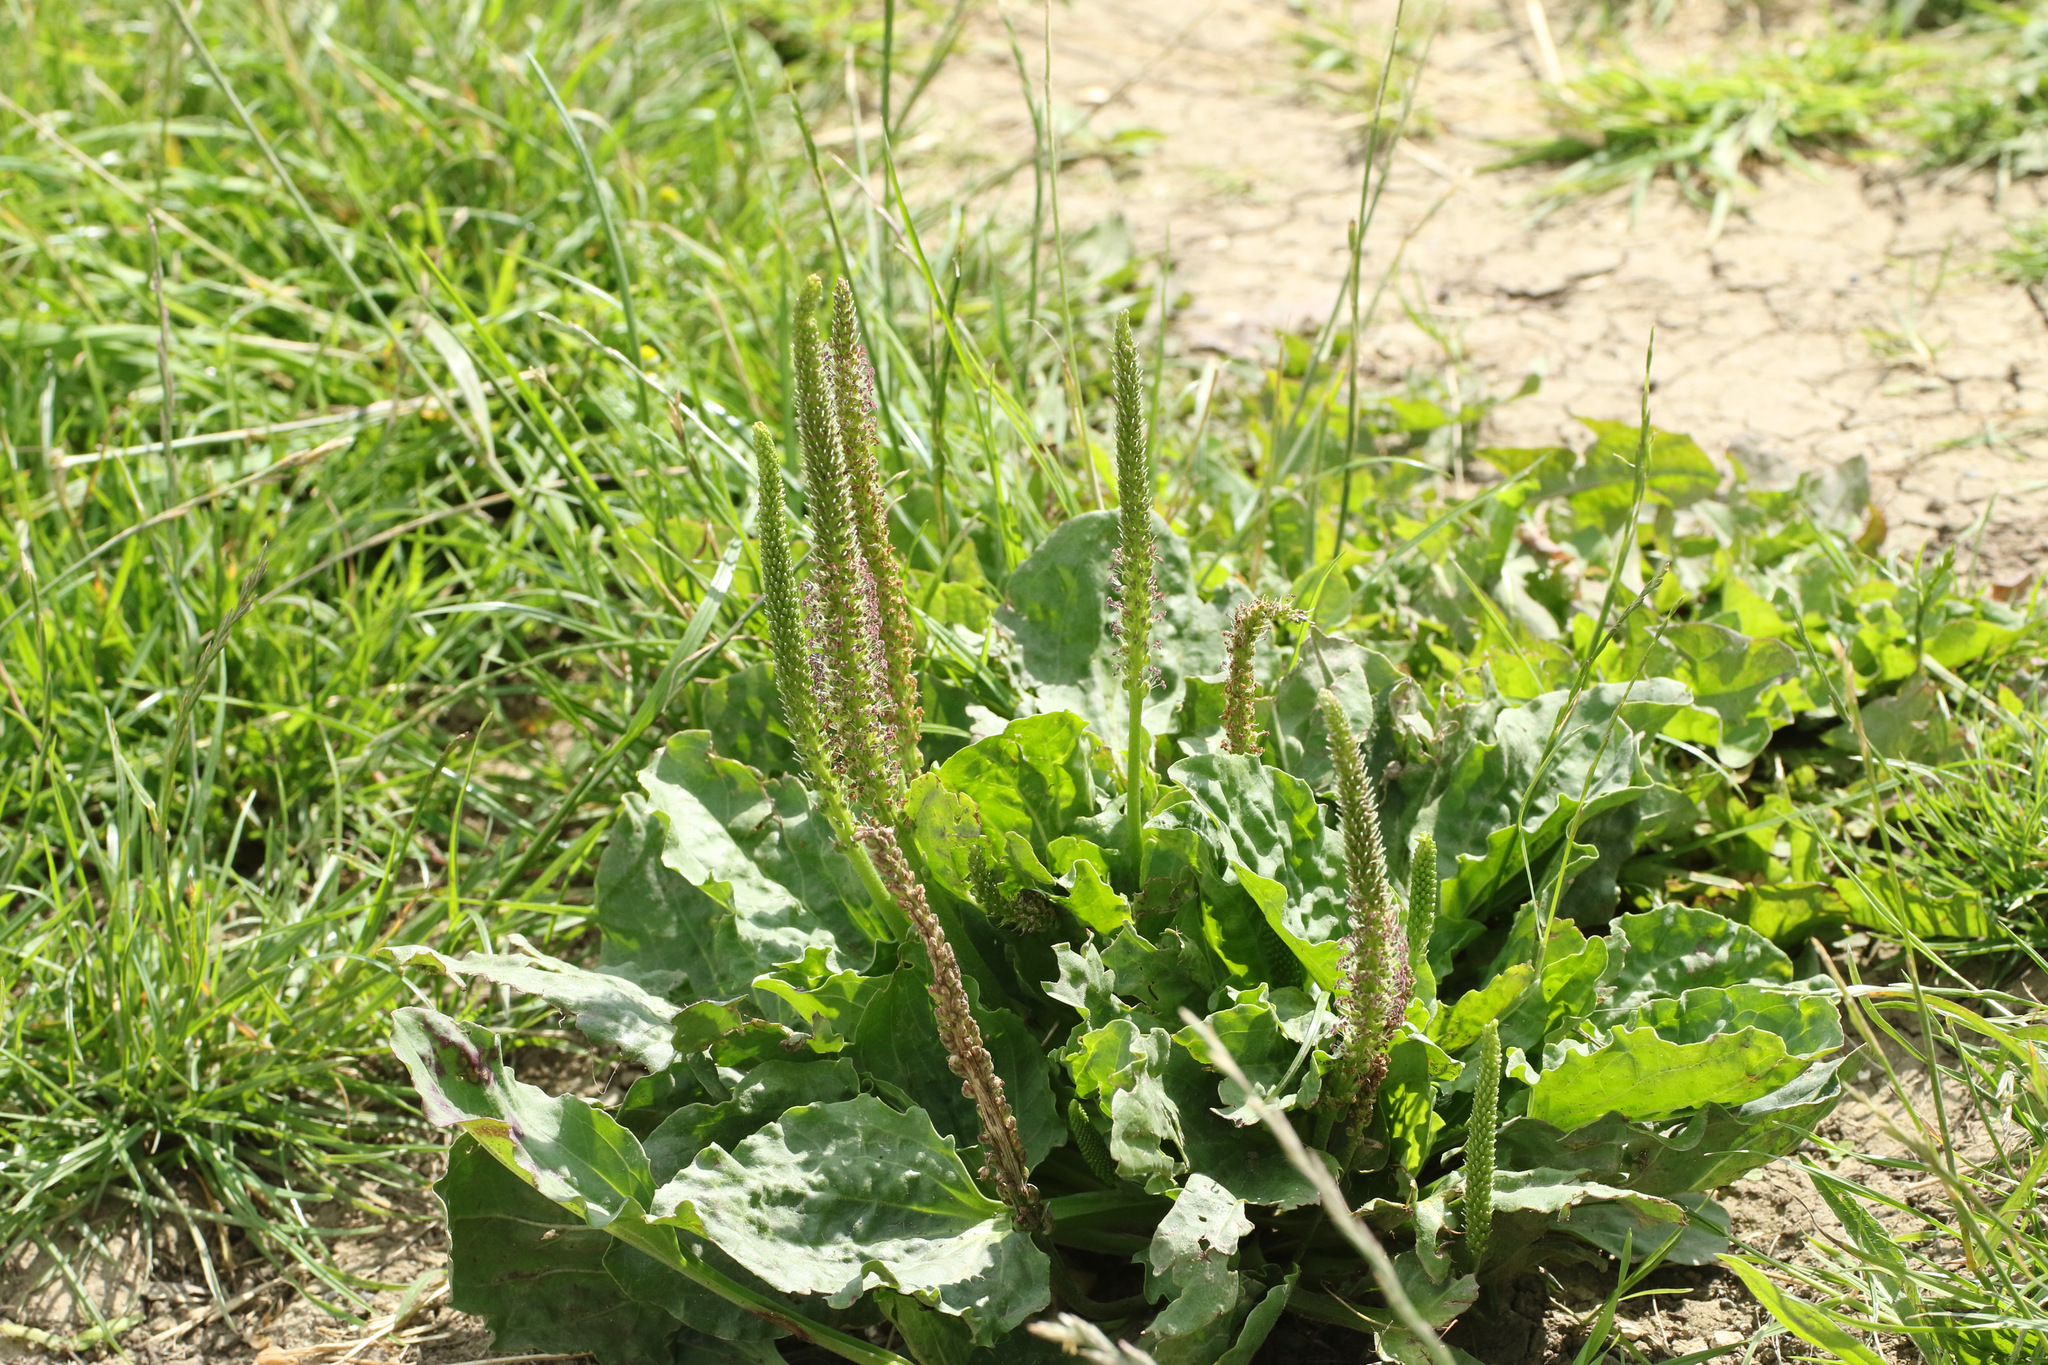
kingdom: Plantae
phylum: Tracheophyta
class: Magnoliopsida
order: Lamiales
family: Plantaginaceae
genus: Plantago
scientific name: Plantago major
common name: Common plantain
